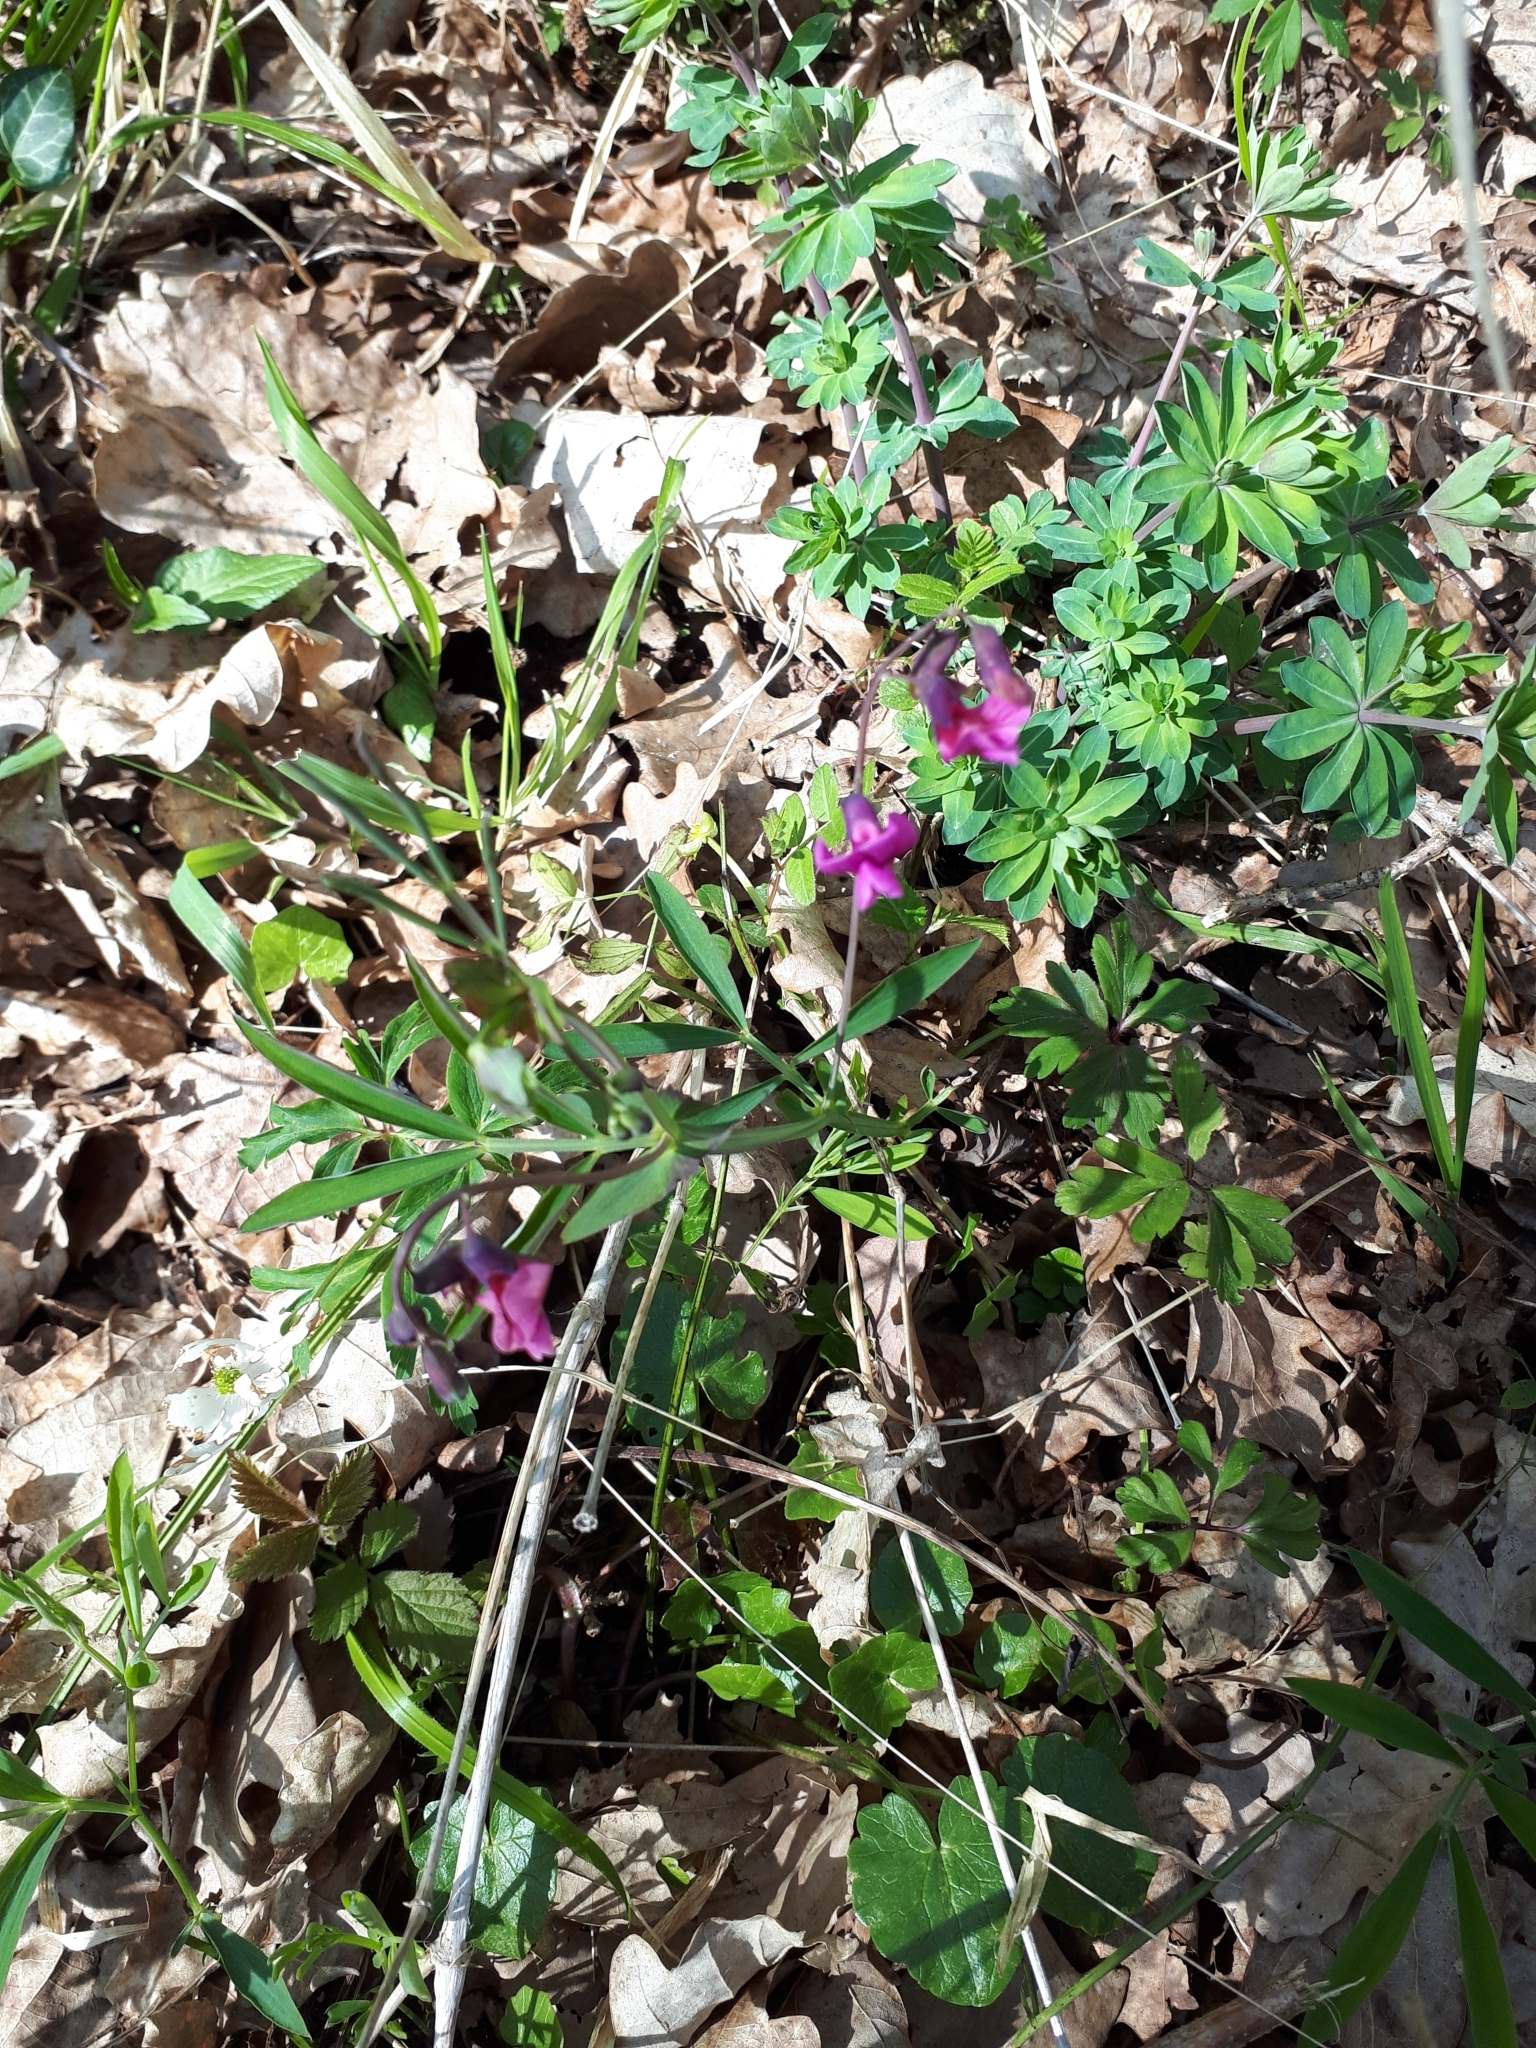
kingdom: Plantae
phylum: Tracheophyta
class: Magnoliopsida
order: Fabales
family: Fabaceae
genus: Lathyrus
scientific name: Lathyrus linifolius
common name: Bitter-vetch
